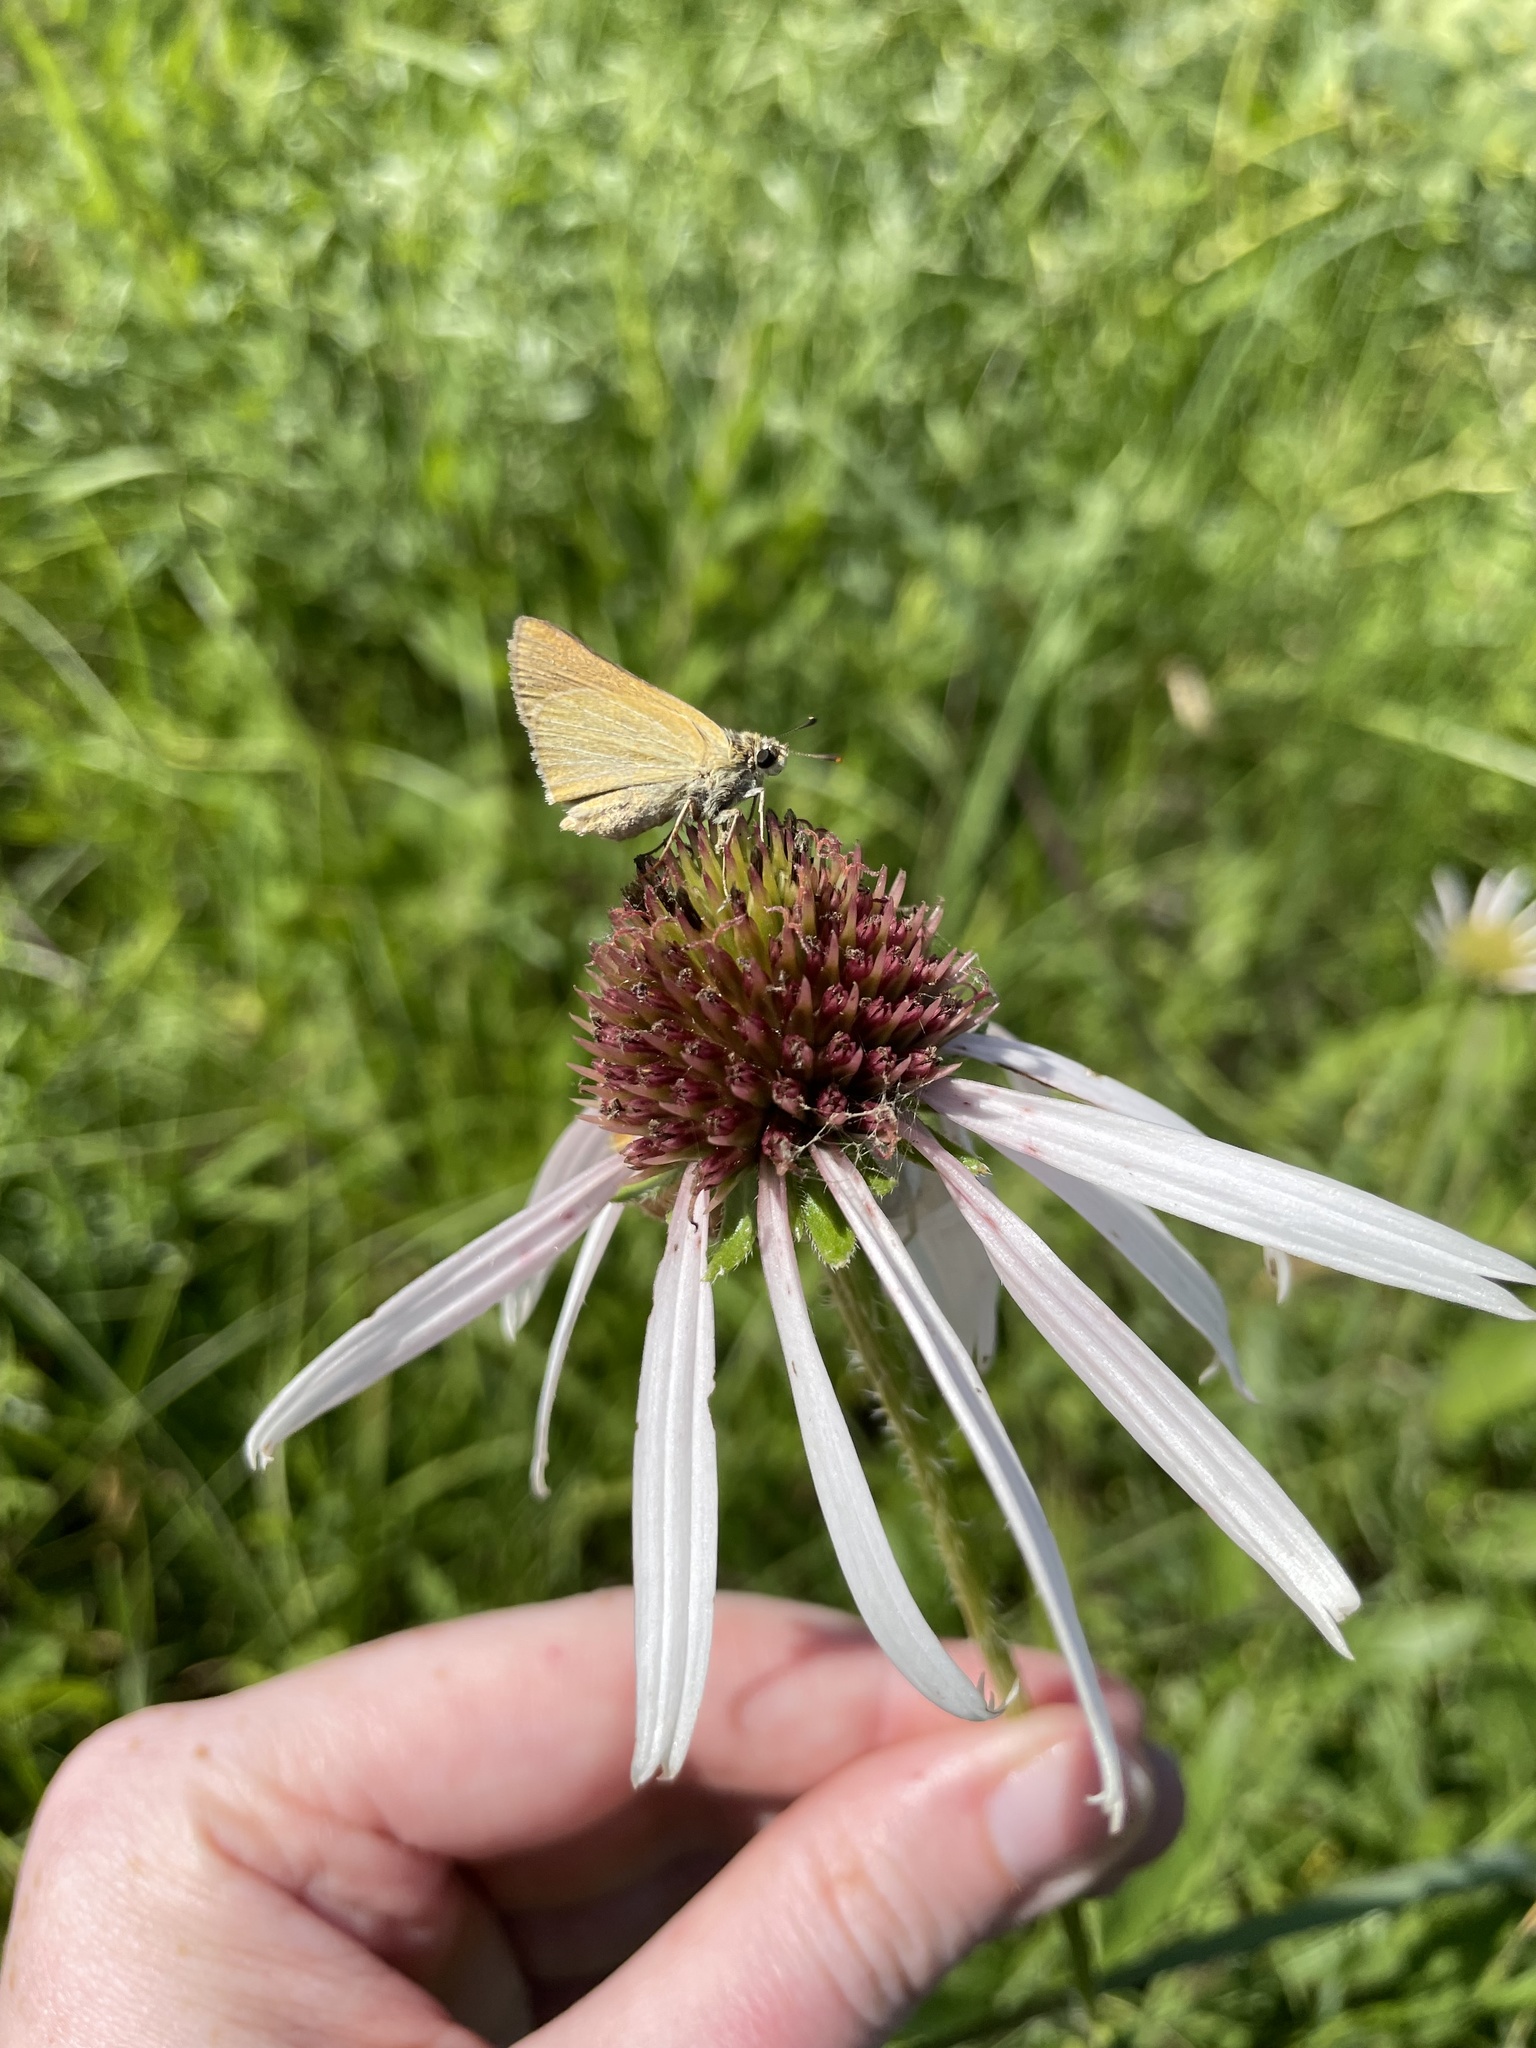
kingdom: Animalia
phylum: Arthropoda
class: Insecta
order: Lepidoptera
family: Hesperiidae
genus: Atrytone
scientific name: Atrytone arogos
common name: Arogos skipper
